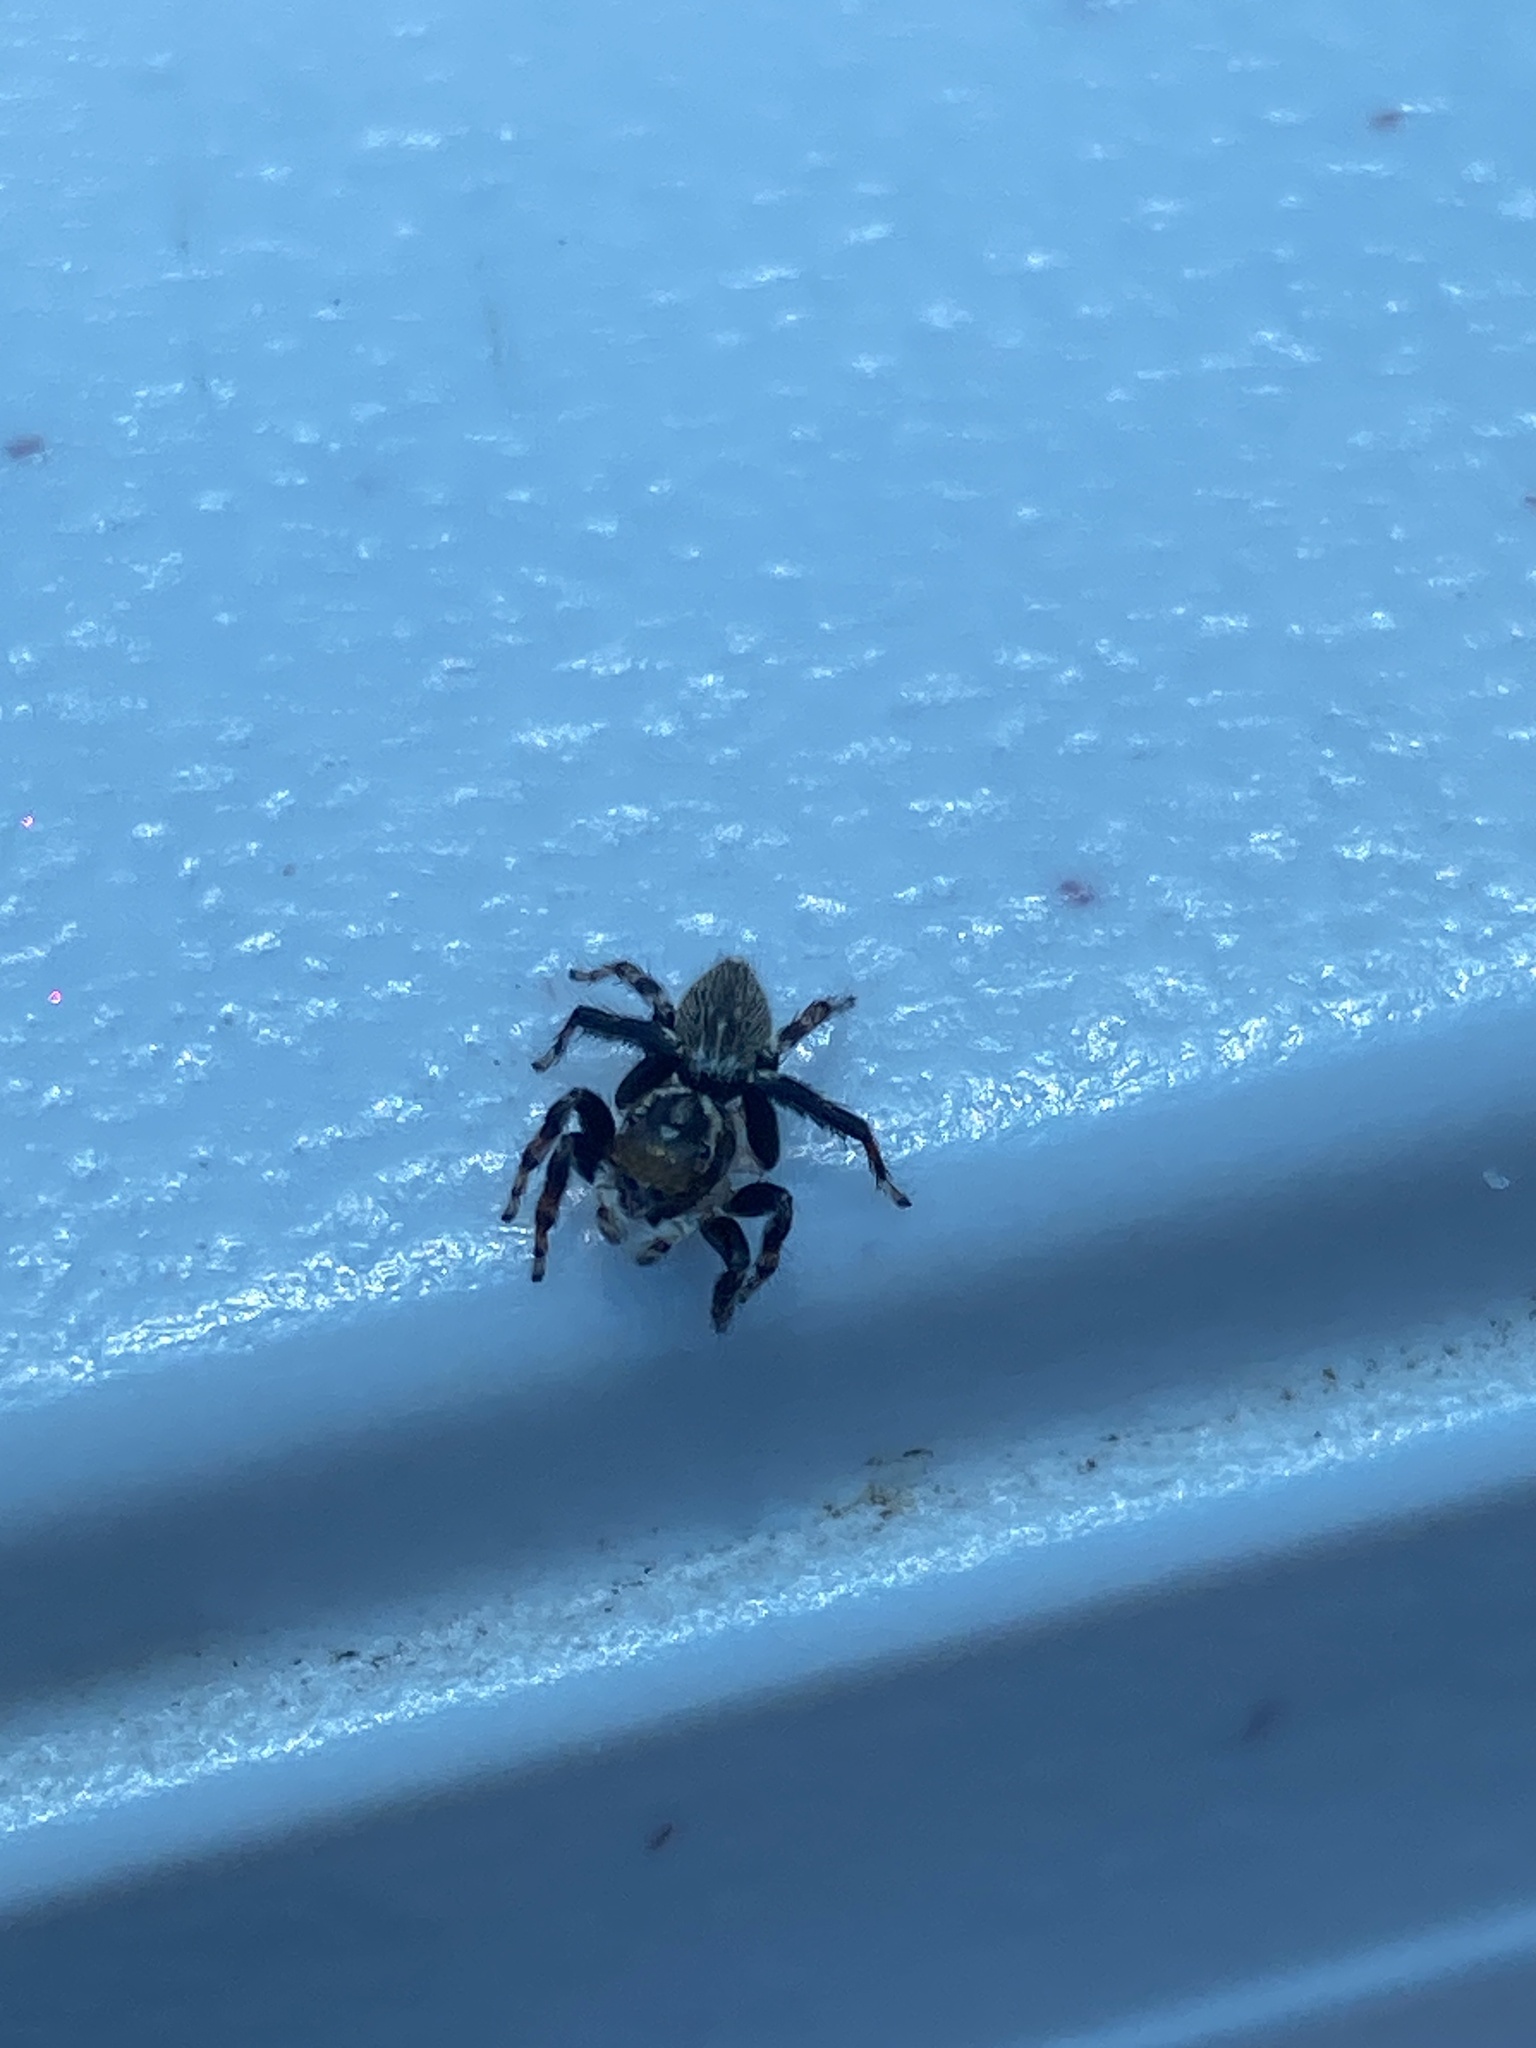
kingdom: Animalia
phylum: Arthropoda
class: Arachnida
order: Araneae
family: Salticidae
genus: Maratus
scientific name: Maratus griseus
